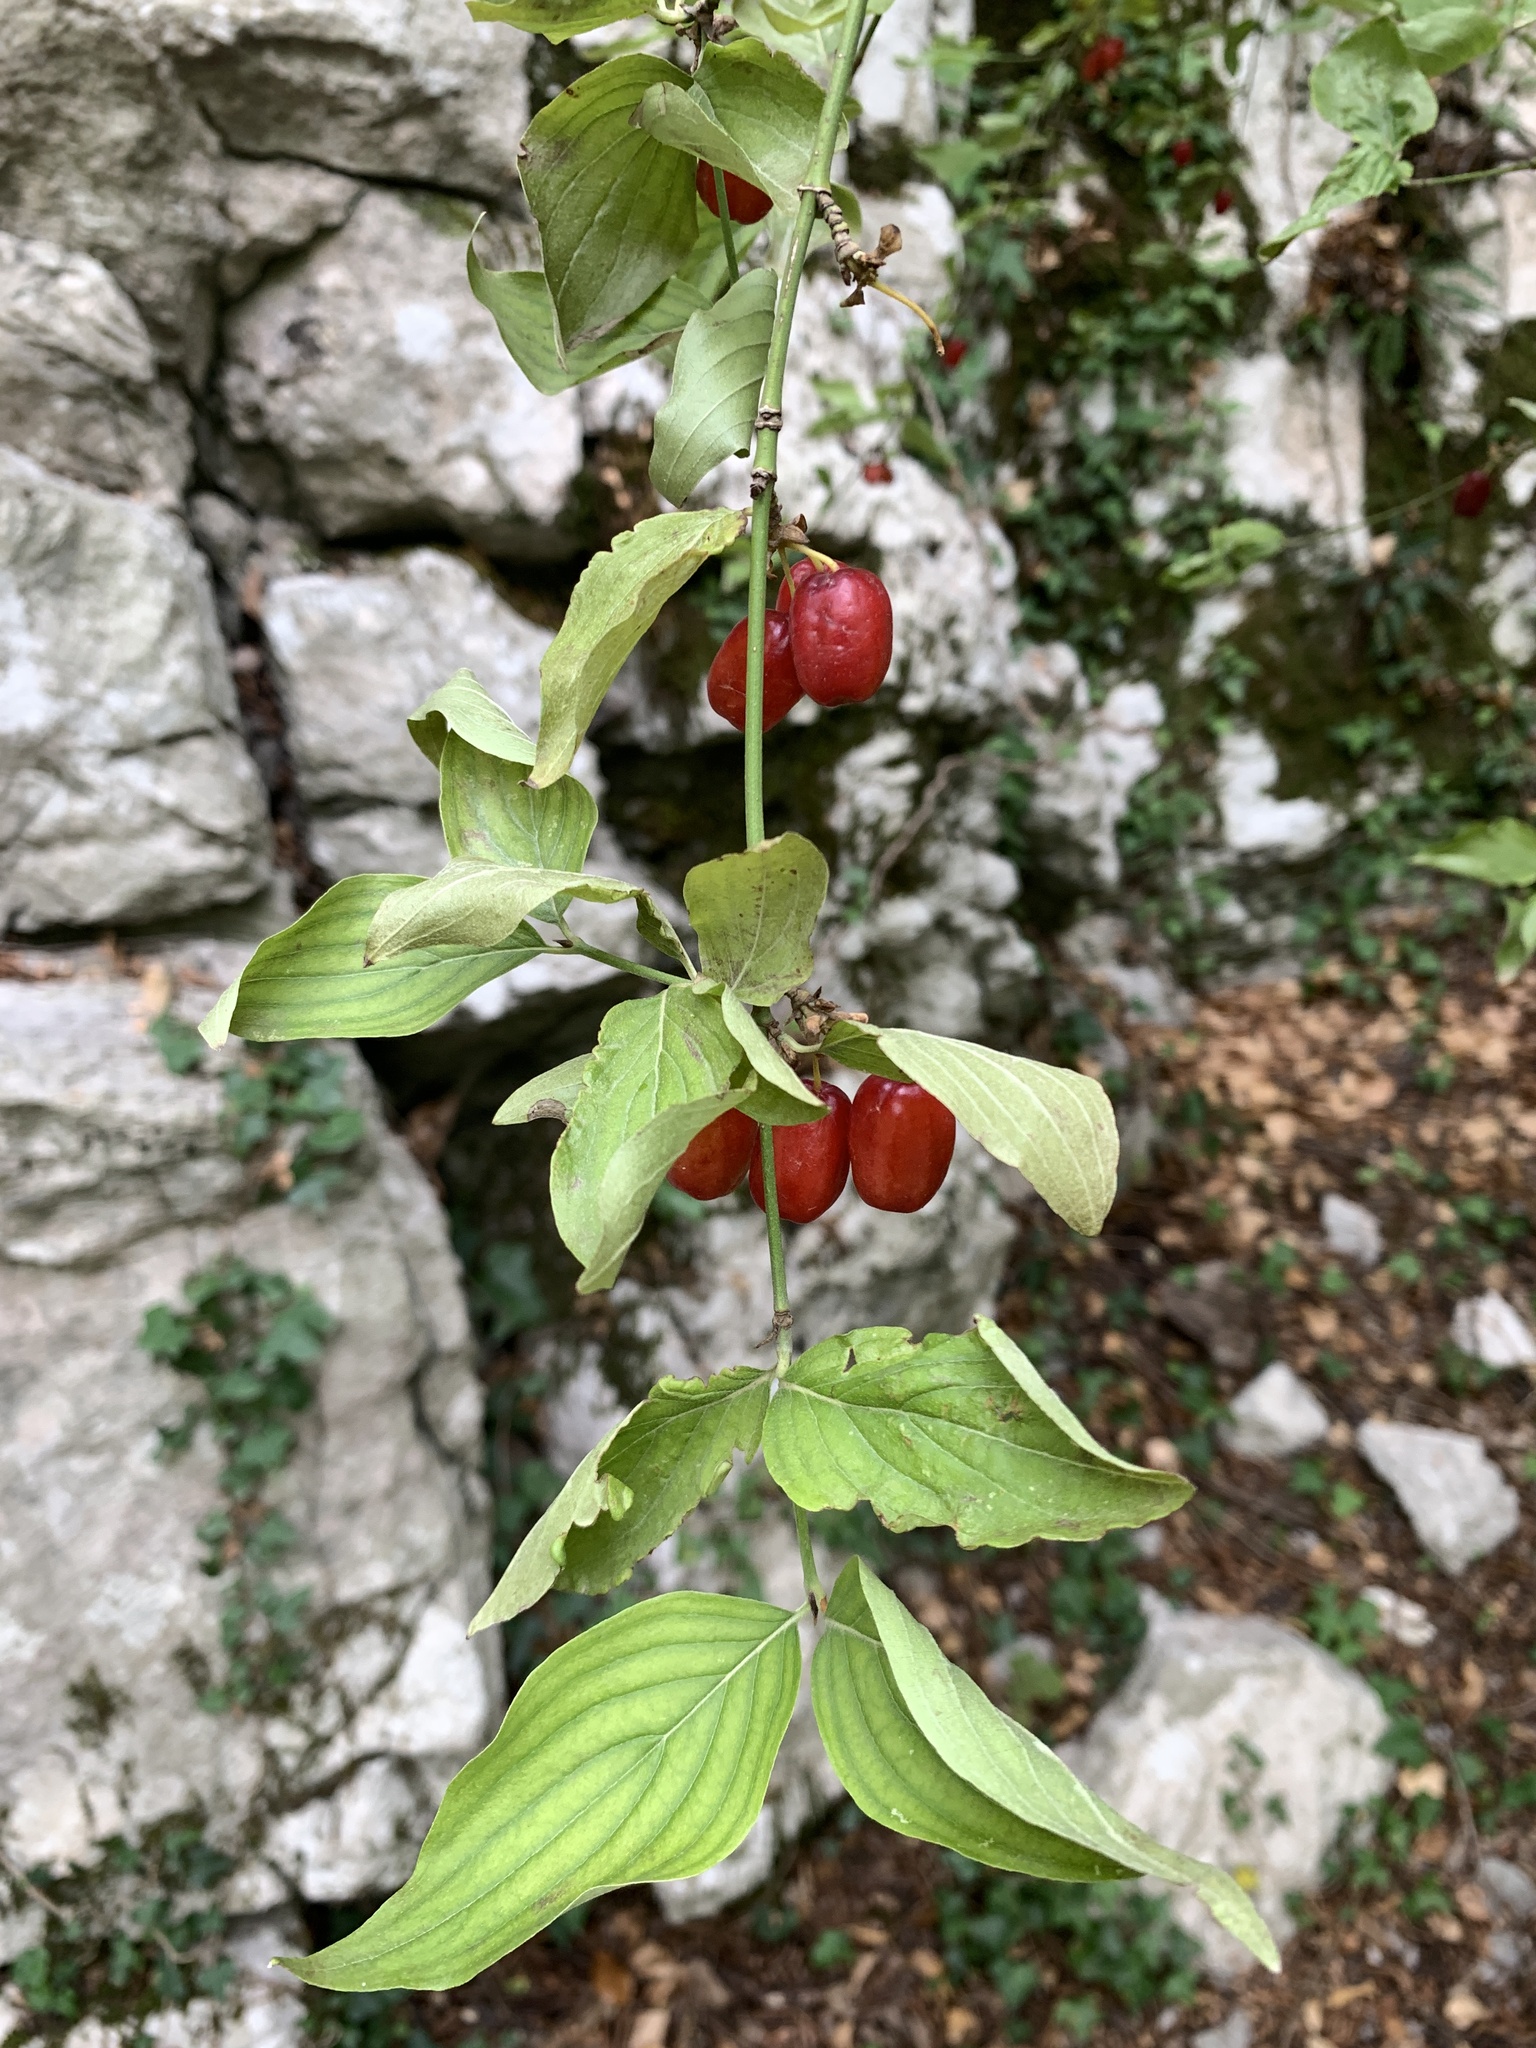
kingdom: Plantae
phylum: Tracheophyta
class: Magnoliopsida
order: Cornales
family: Cornaceae
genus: Cornus
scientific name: Cornus mas
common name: Cornelian-cherry
